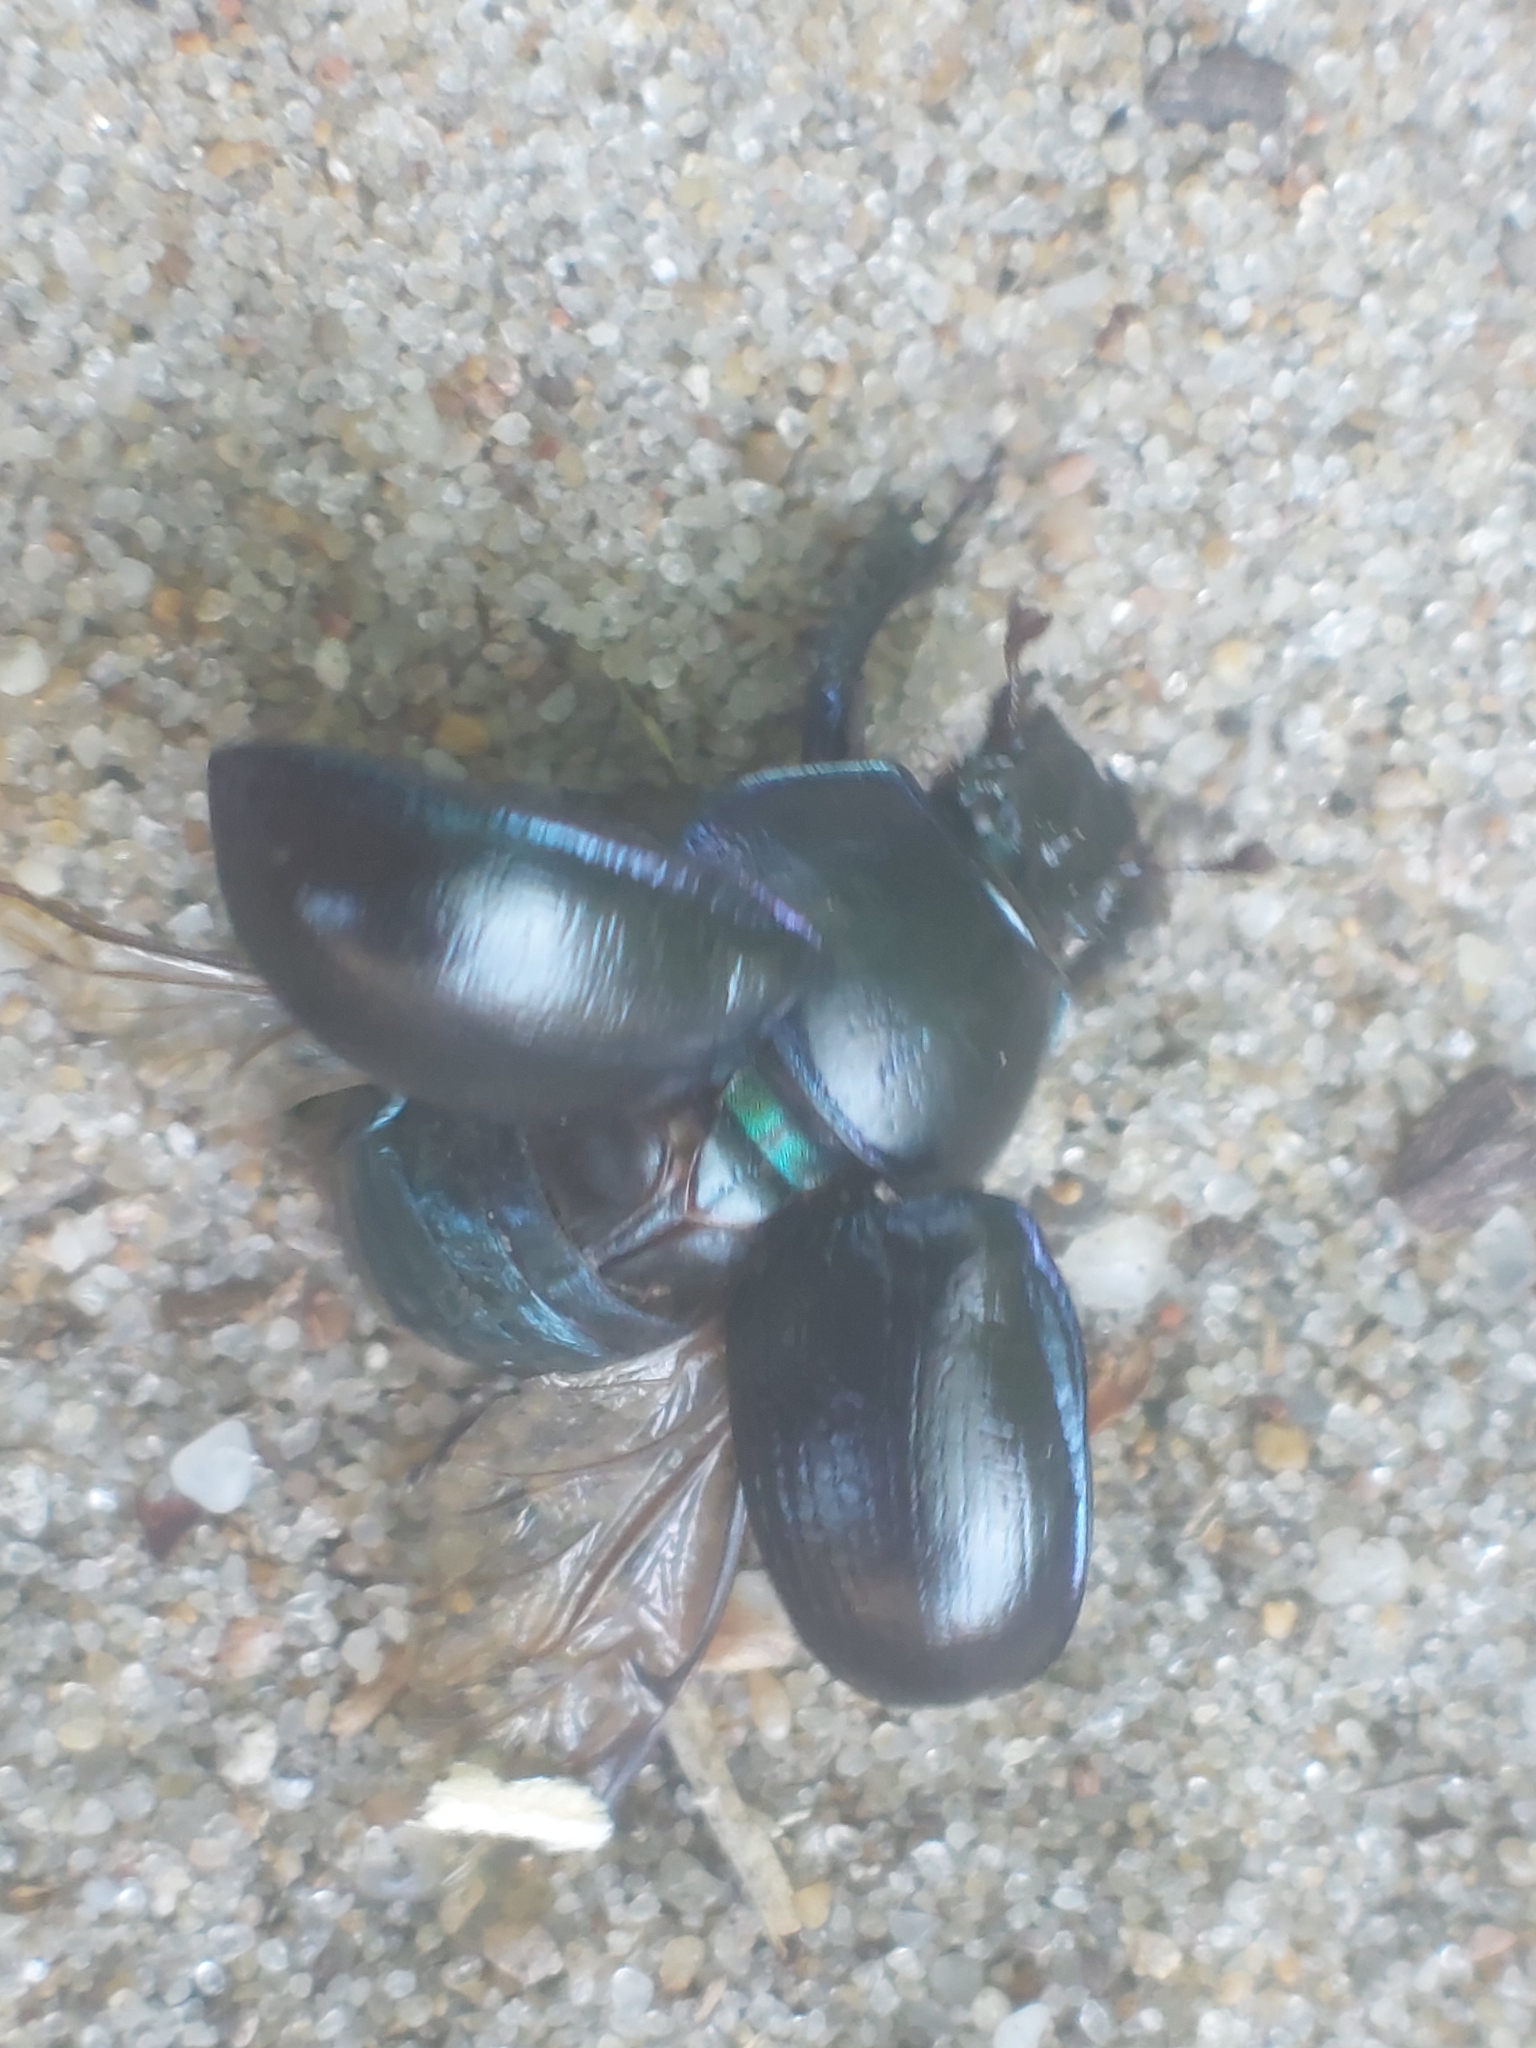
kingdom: Animalia
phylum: Arthropoda
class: Insecta
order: Coleoptera
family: Geotrupidae
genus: Anoplotrupes
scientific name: Anoplotrupes stercorosus
